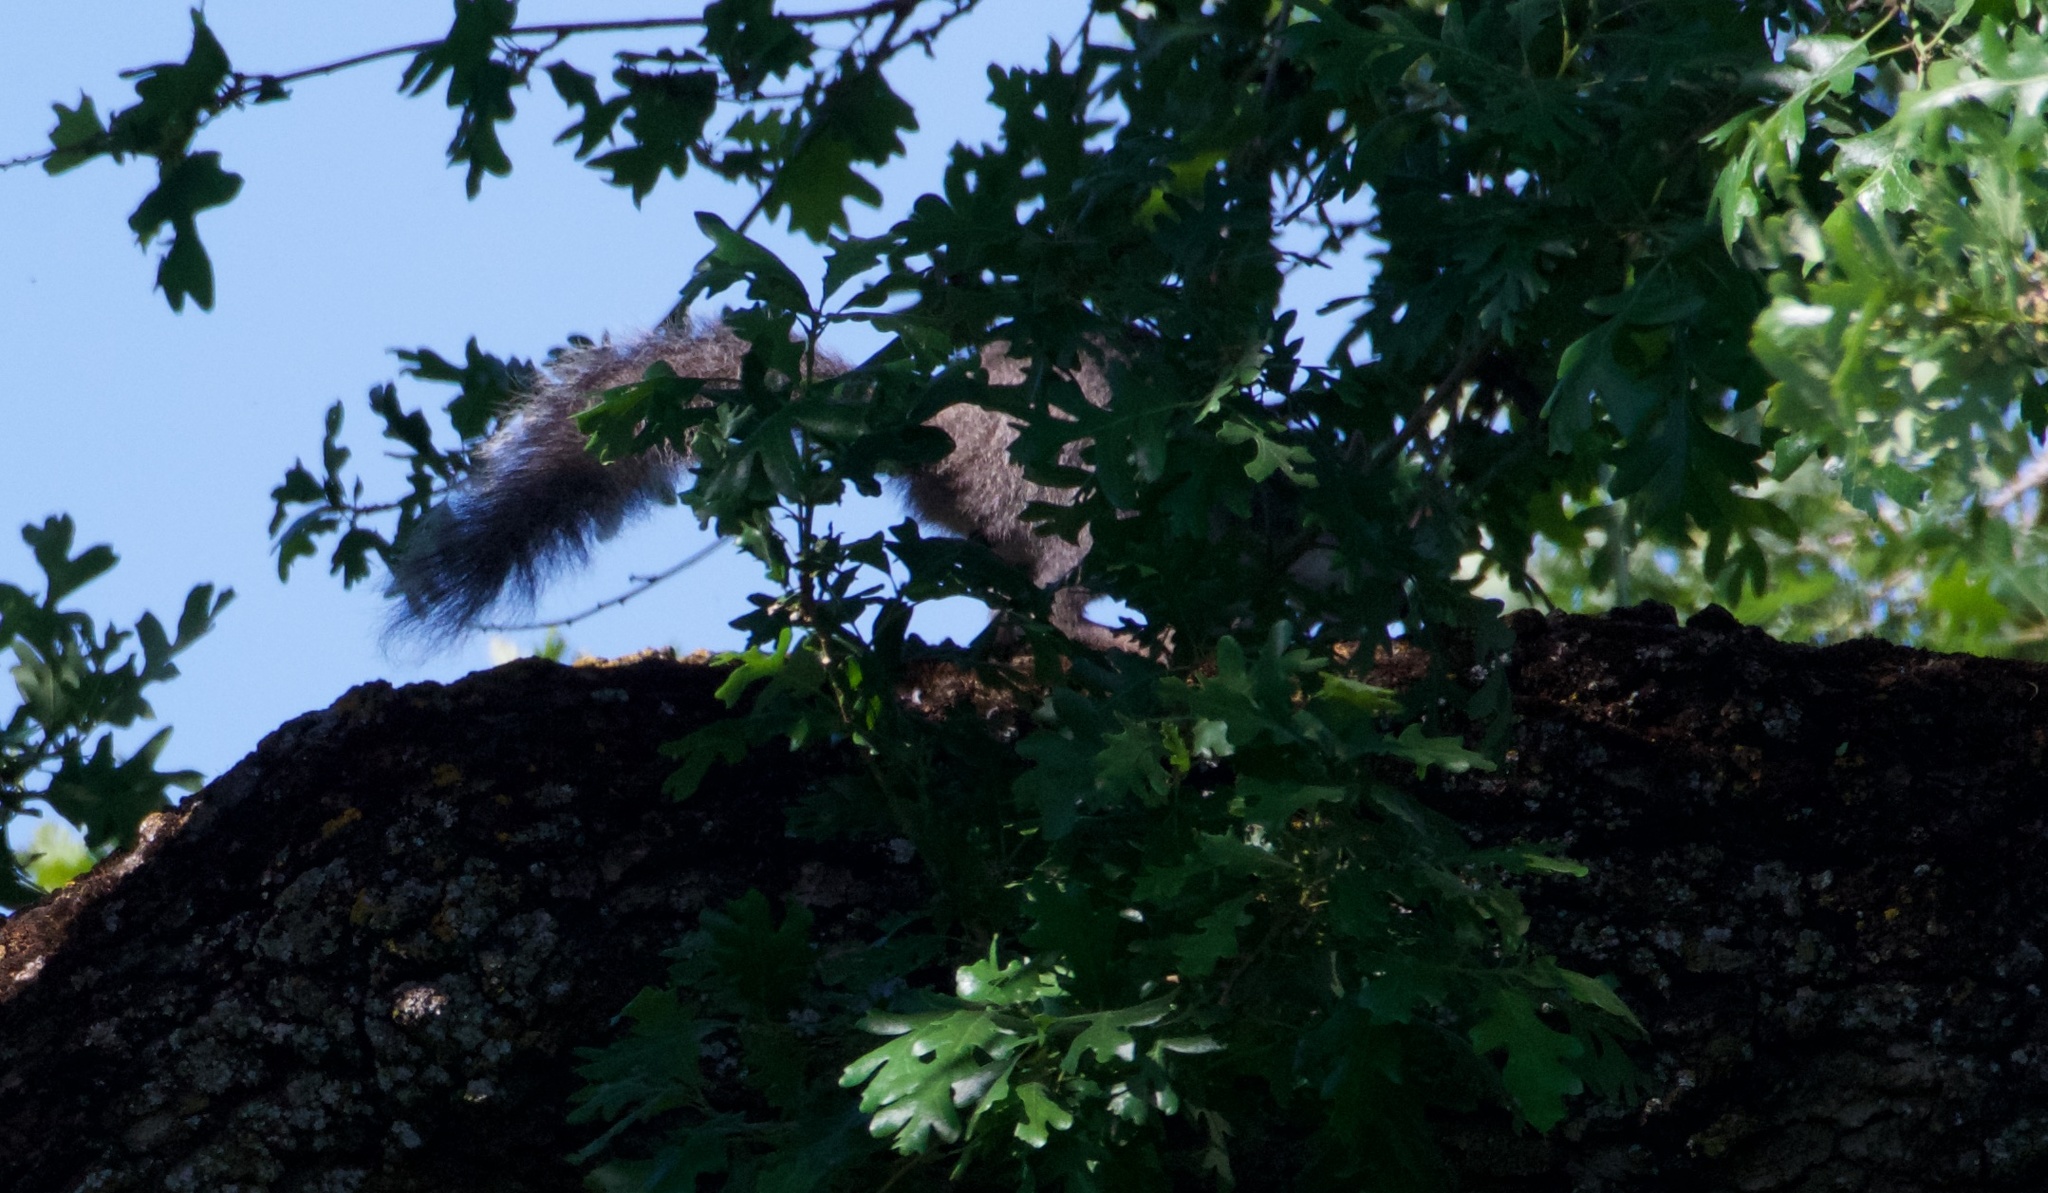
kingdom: Animalia
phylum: Chordata
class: Mammalia
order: Rodentia
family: Sciuridae
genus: Sciurus
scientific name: Sciurus carolinensis
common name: Eastern gray squirrel
